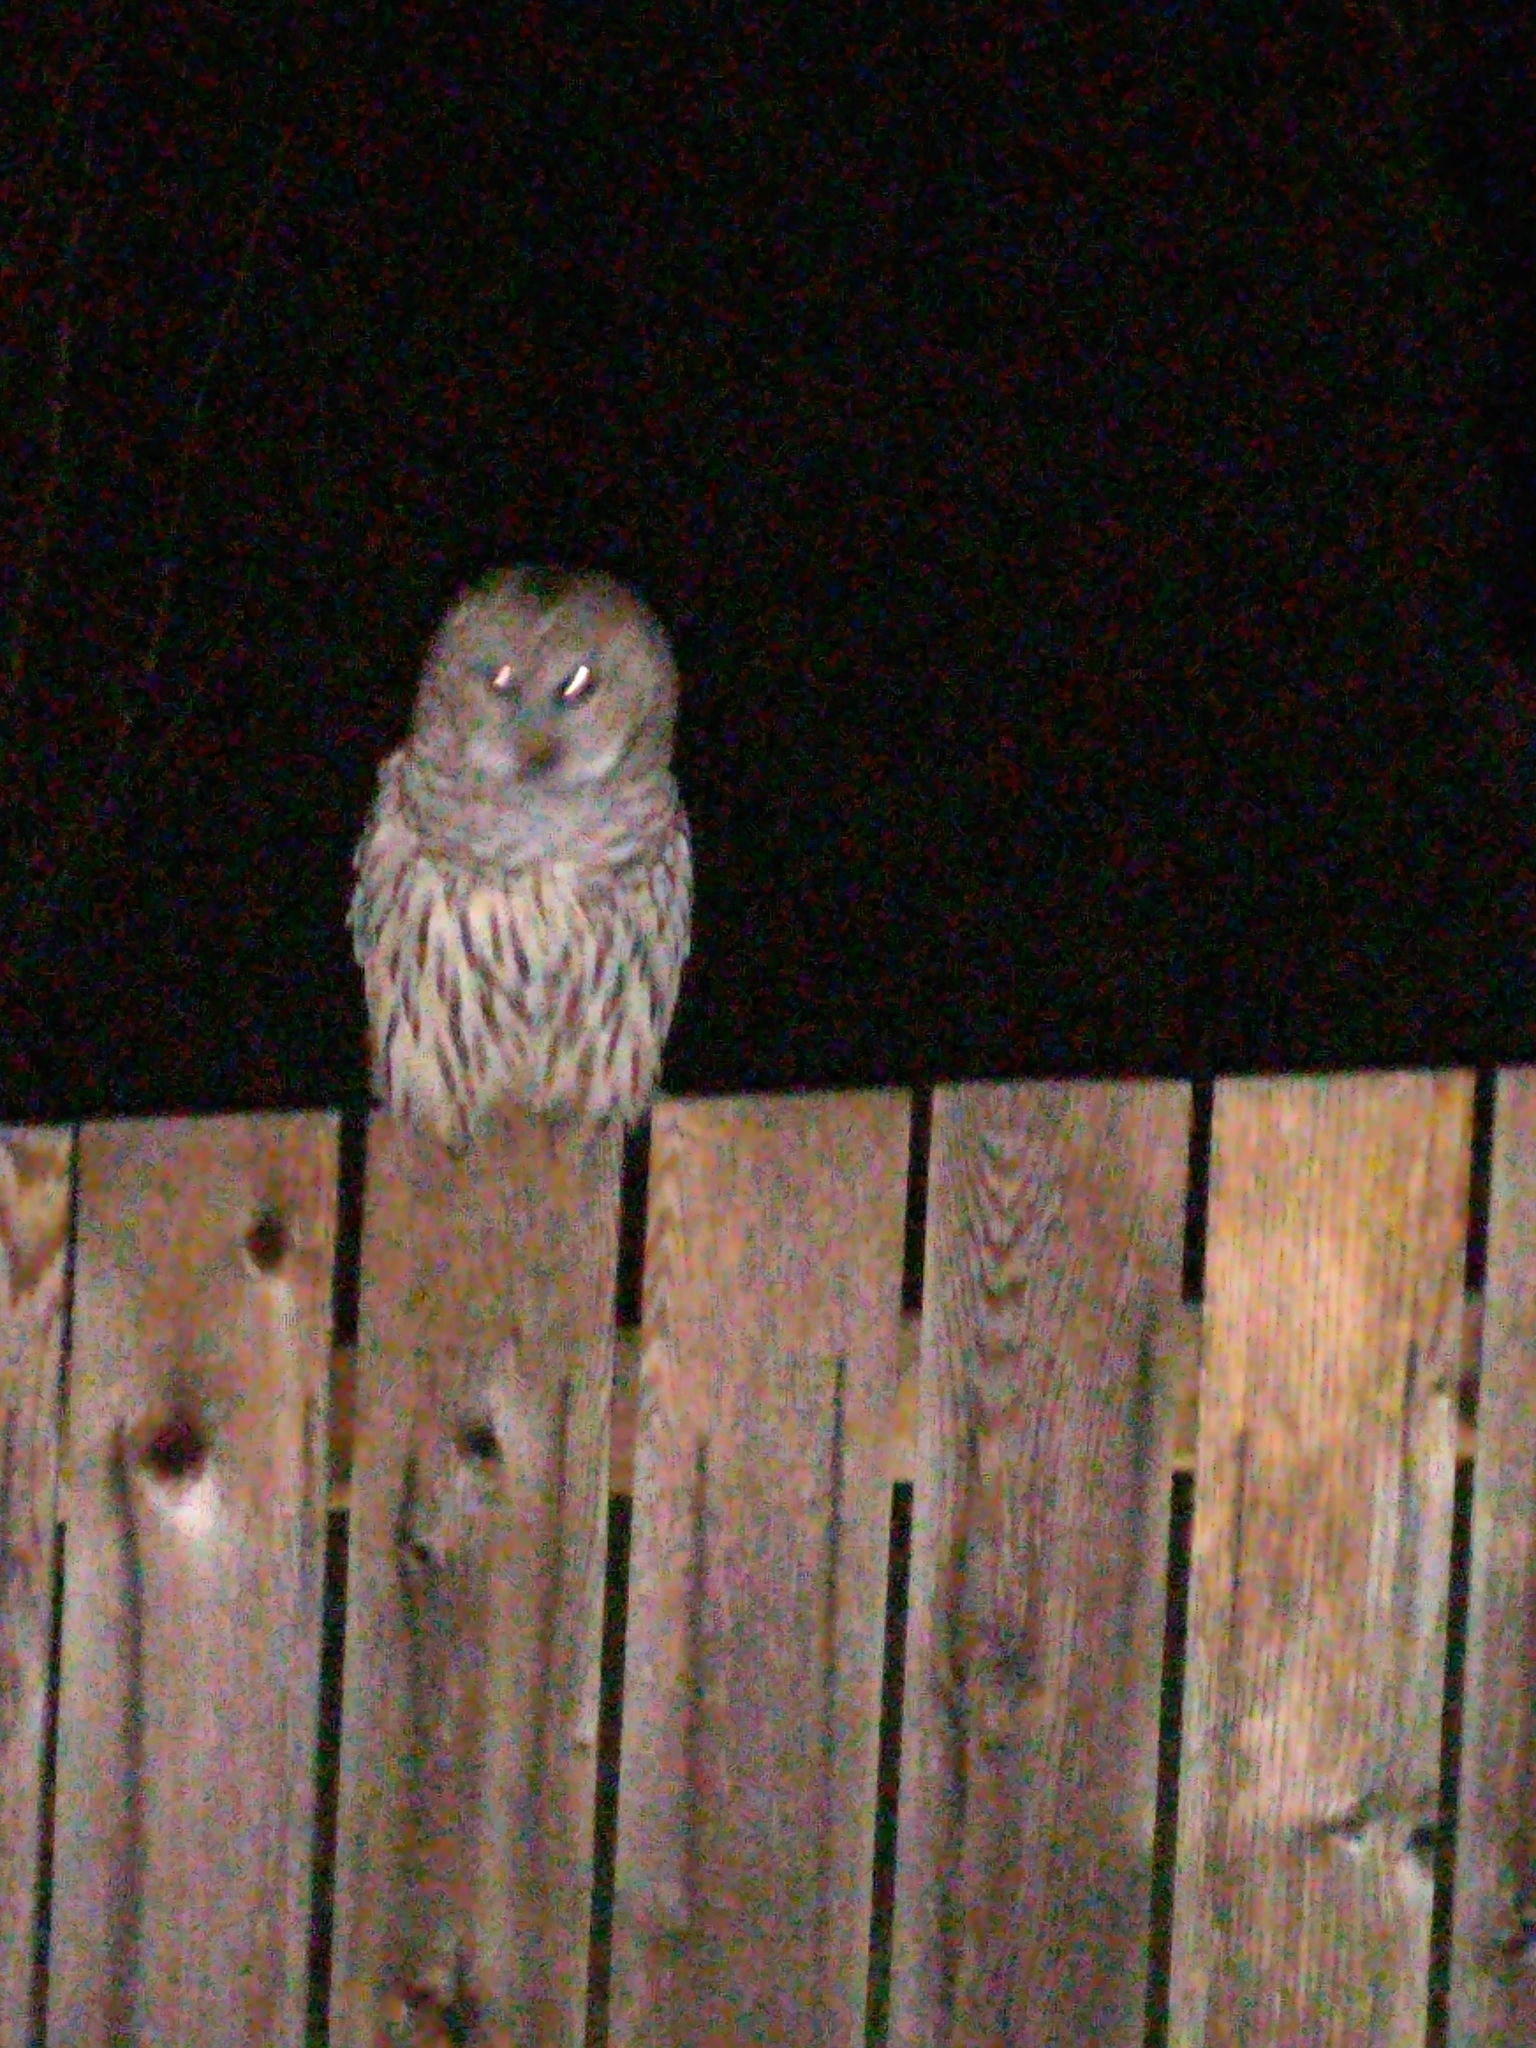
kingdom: Animalia
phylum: Chordata
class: Aves
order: Strigiformes
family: Strigidae
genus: Strix
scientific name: Strix varia
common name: Barred owl
